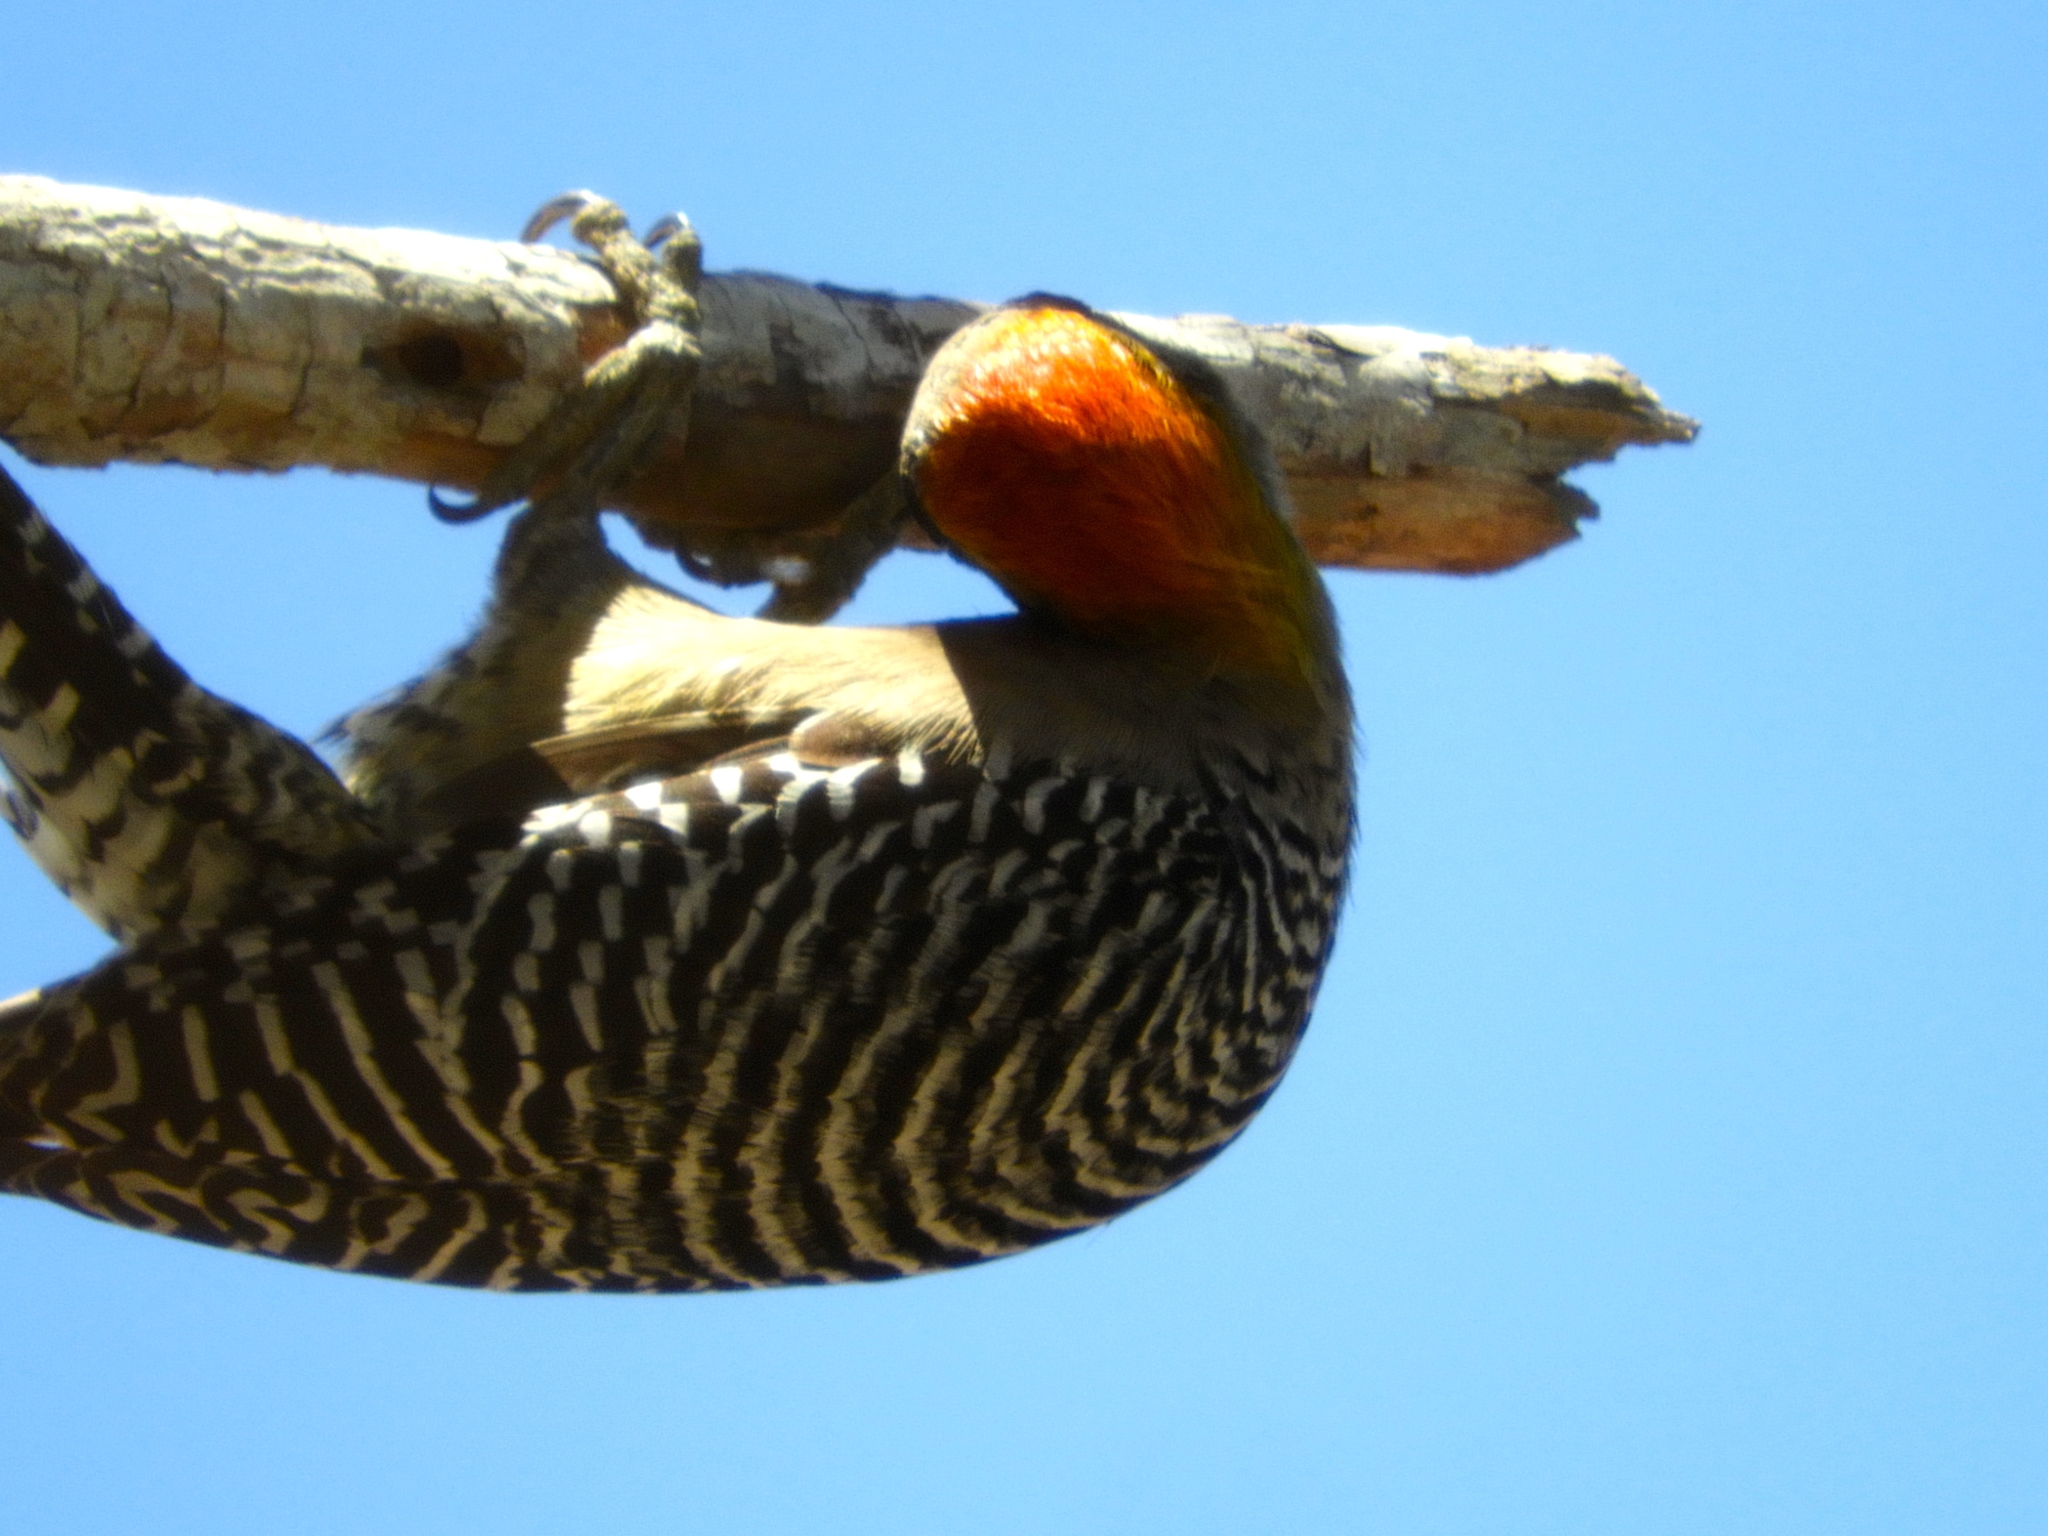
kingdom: Animalia
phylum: Chordata
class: Aves
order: Piciformes
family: Picidae
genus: Melanerpes
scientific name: Melanerpes chrysogenys
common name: Golden-cheeked woodpecker
